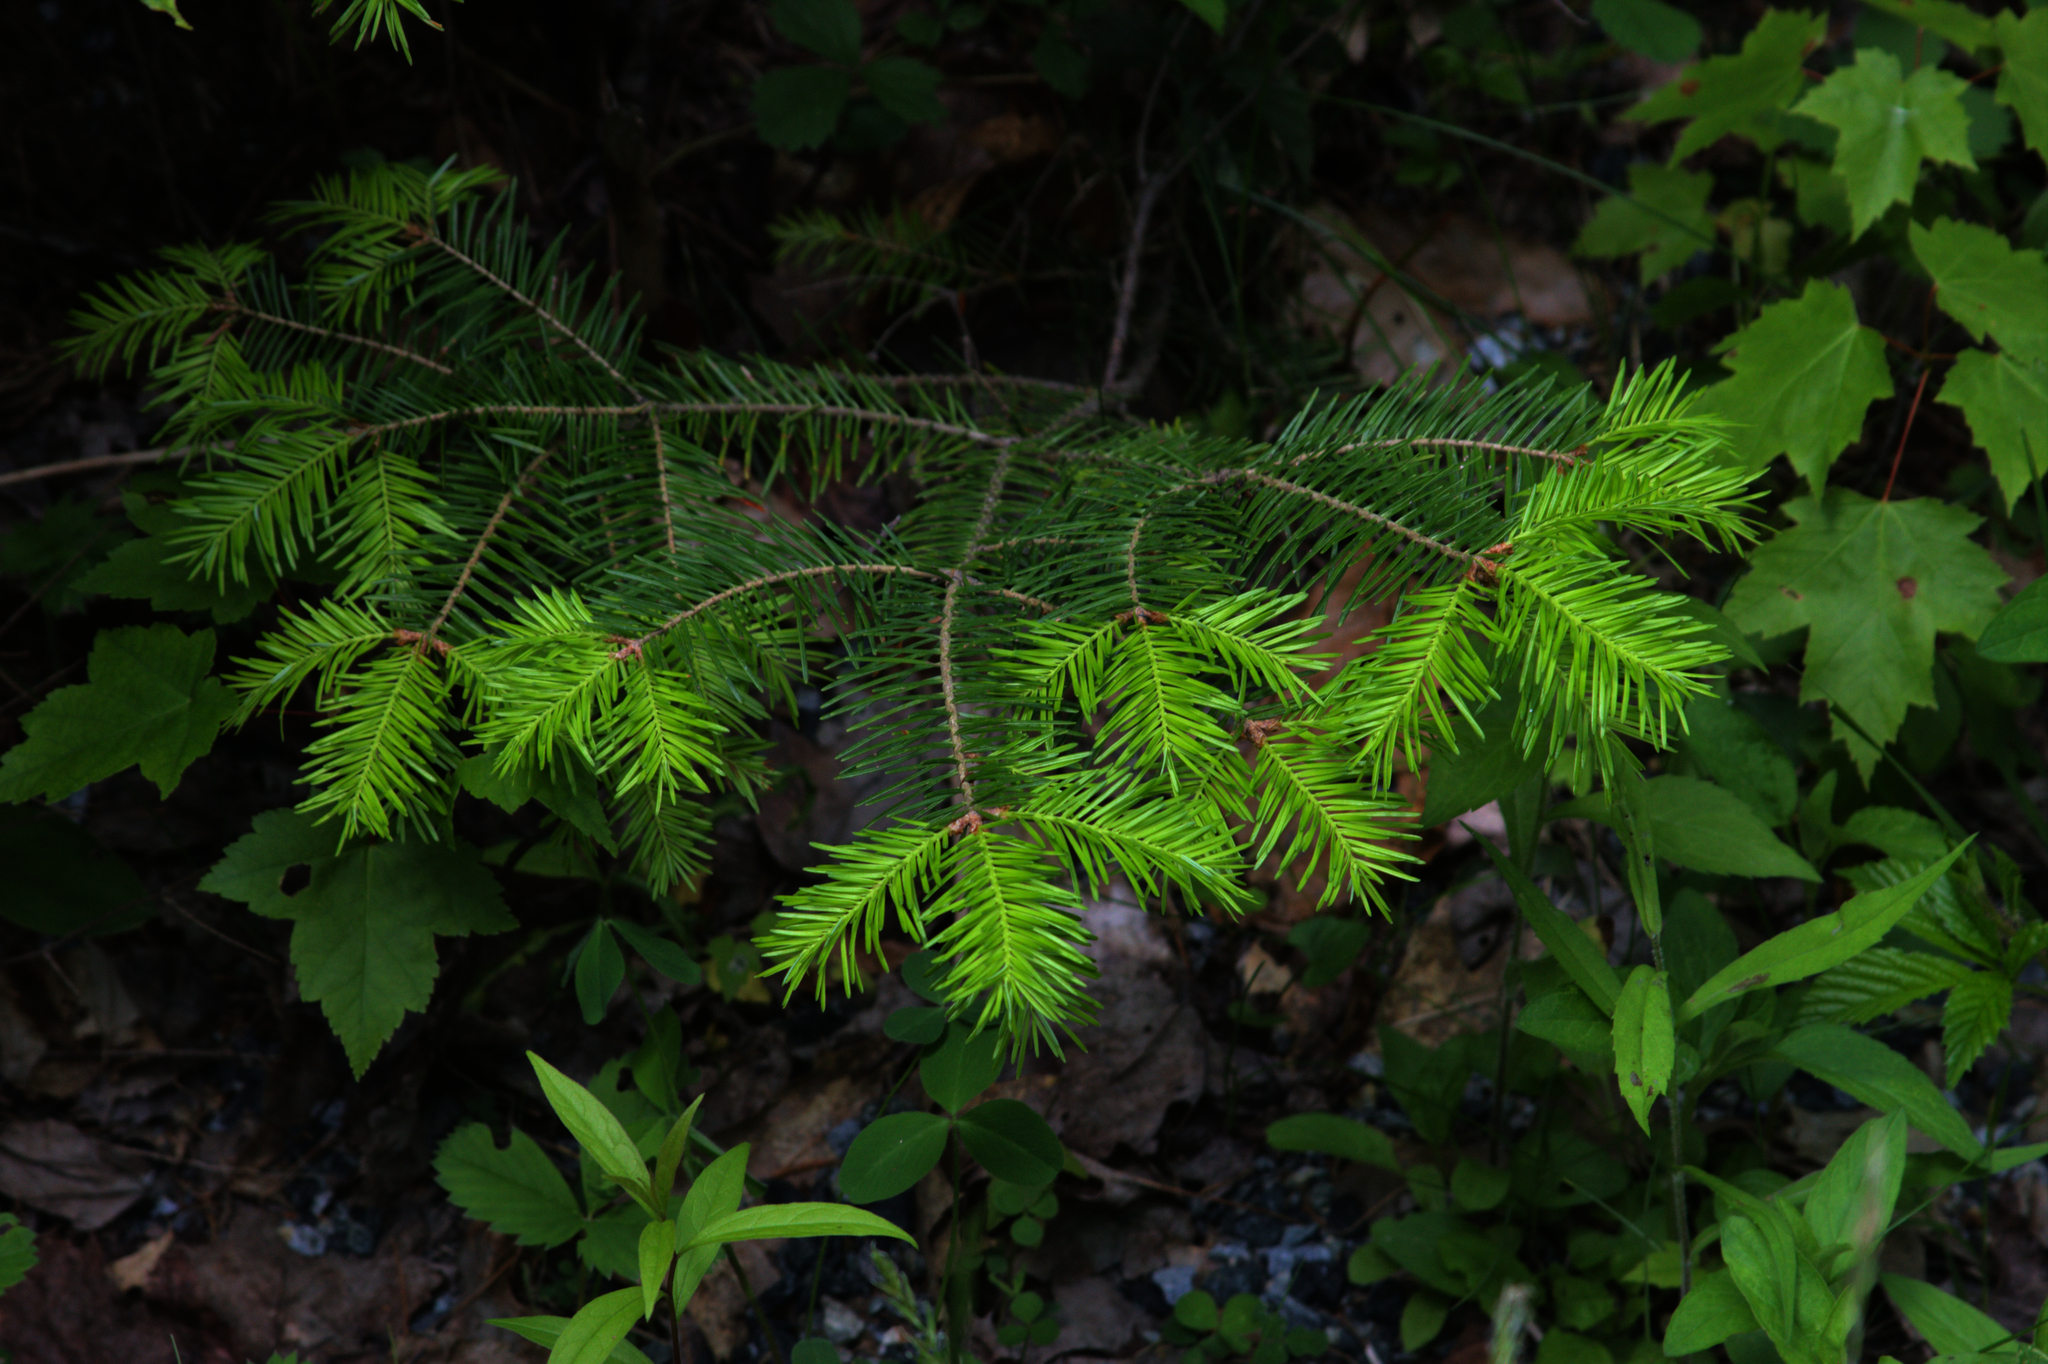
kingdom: Plantae
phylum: Tracheophyta
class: Pinopsida
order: Pinales
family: Pinaceae
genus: Abies
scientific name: Abies balsamea
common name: Balsam fir
